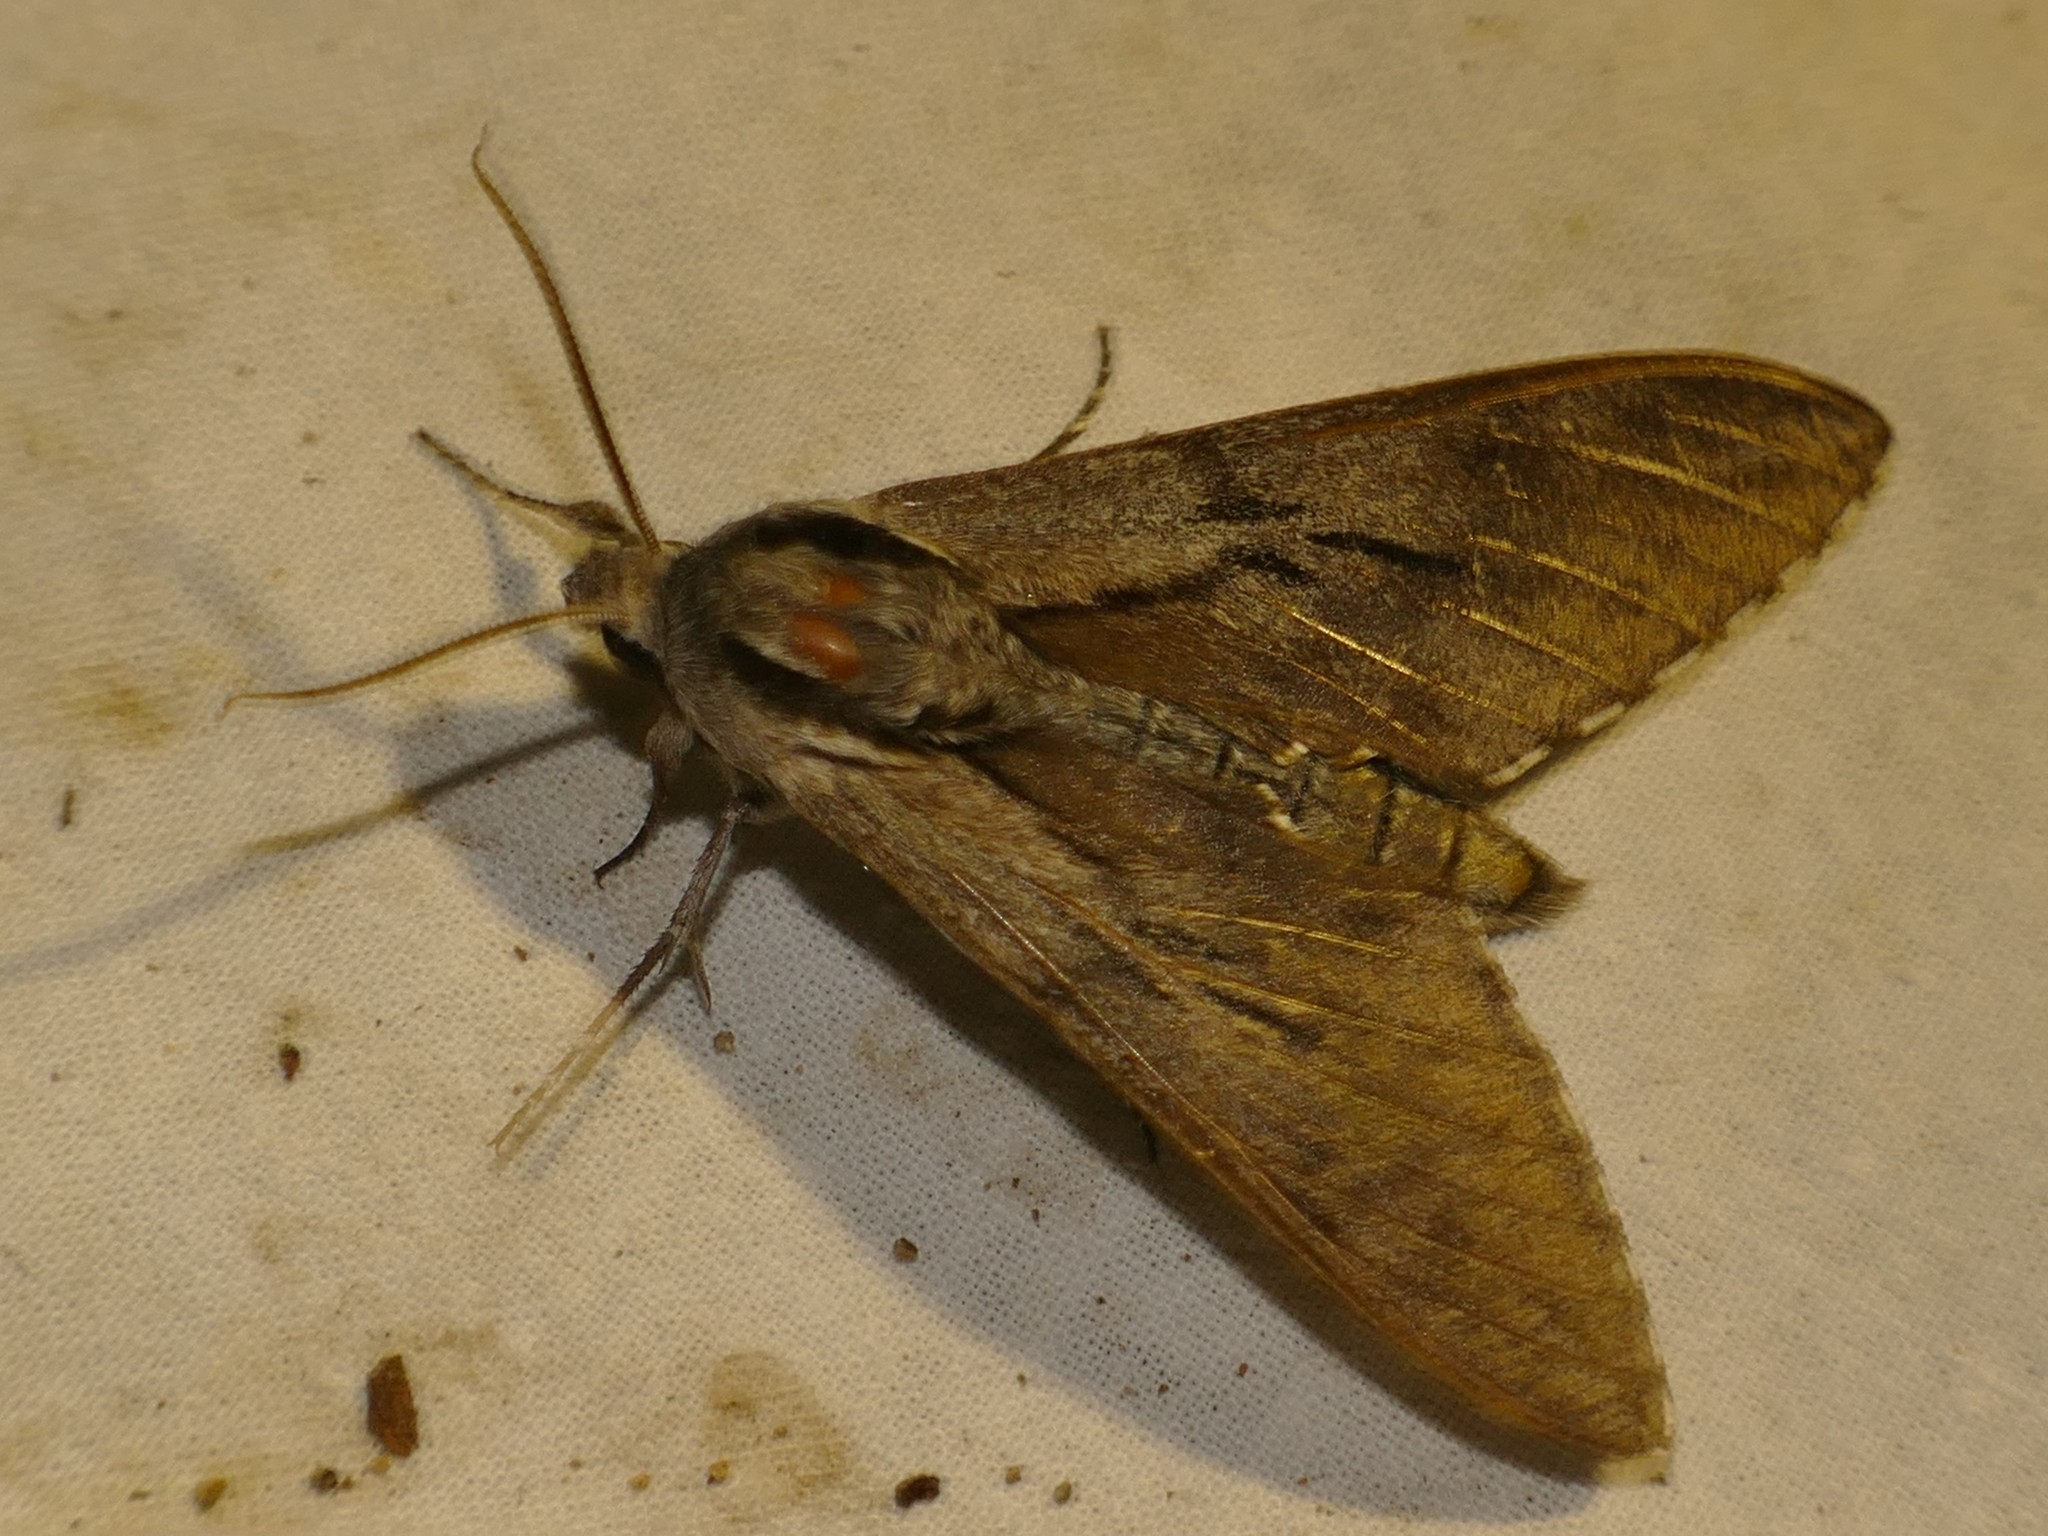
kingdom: Animalia
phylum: Arthropoda
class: Insecta
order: Lepidoptera
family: Sphingidae
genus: Sphinx
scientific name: Sphinx maurorum
